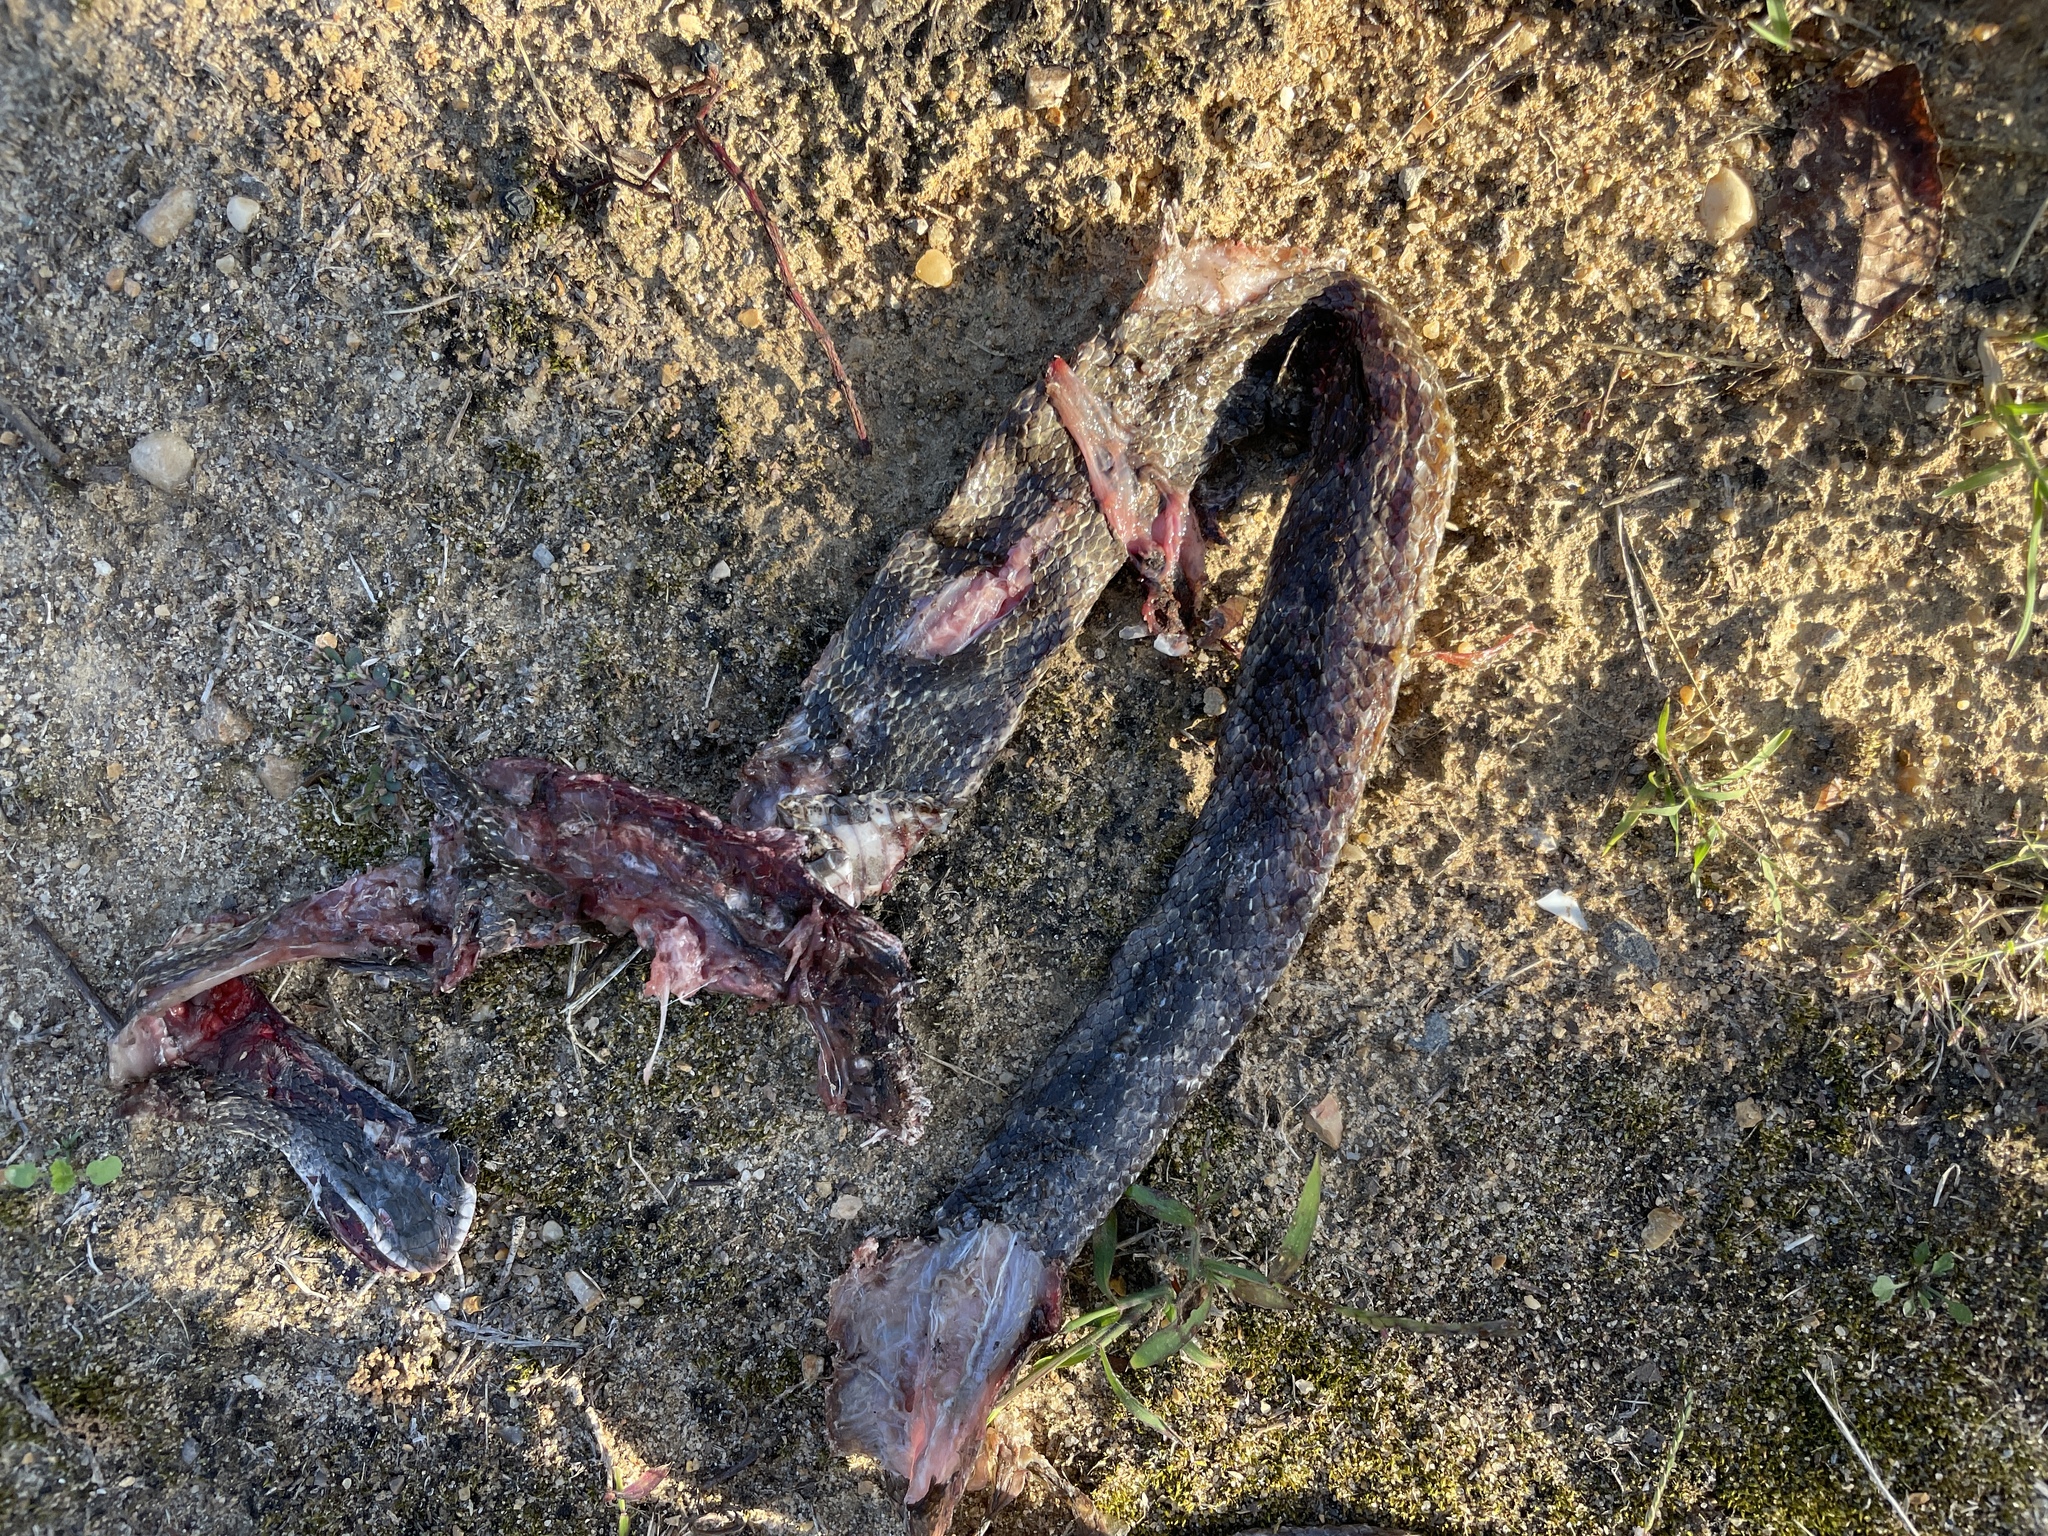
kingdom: Animalia
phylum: Chordata
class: Squamata
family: Colubridae
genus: Pantherophis
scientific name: Pantherophis spiloides
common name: Gray rat snake
